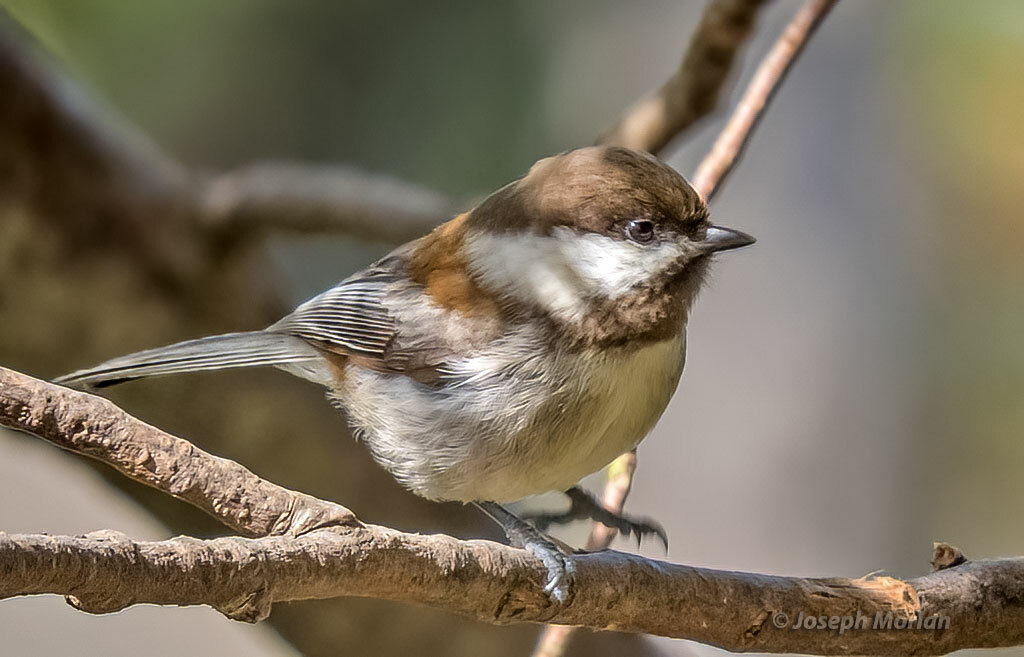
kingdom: Animalia
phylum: Chordata
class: Aves
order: Passeriformes
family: Paridae
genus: Poecile
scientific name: Poecile rufescens
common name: Chestnut-backed chickadee
